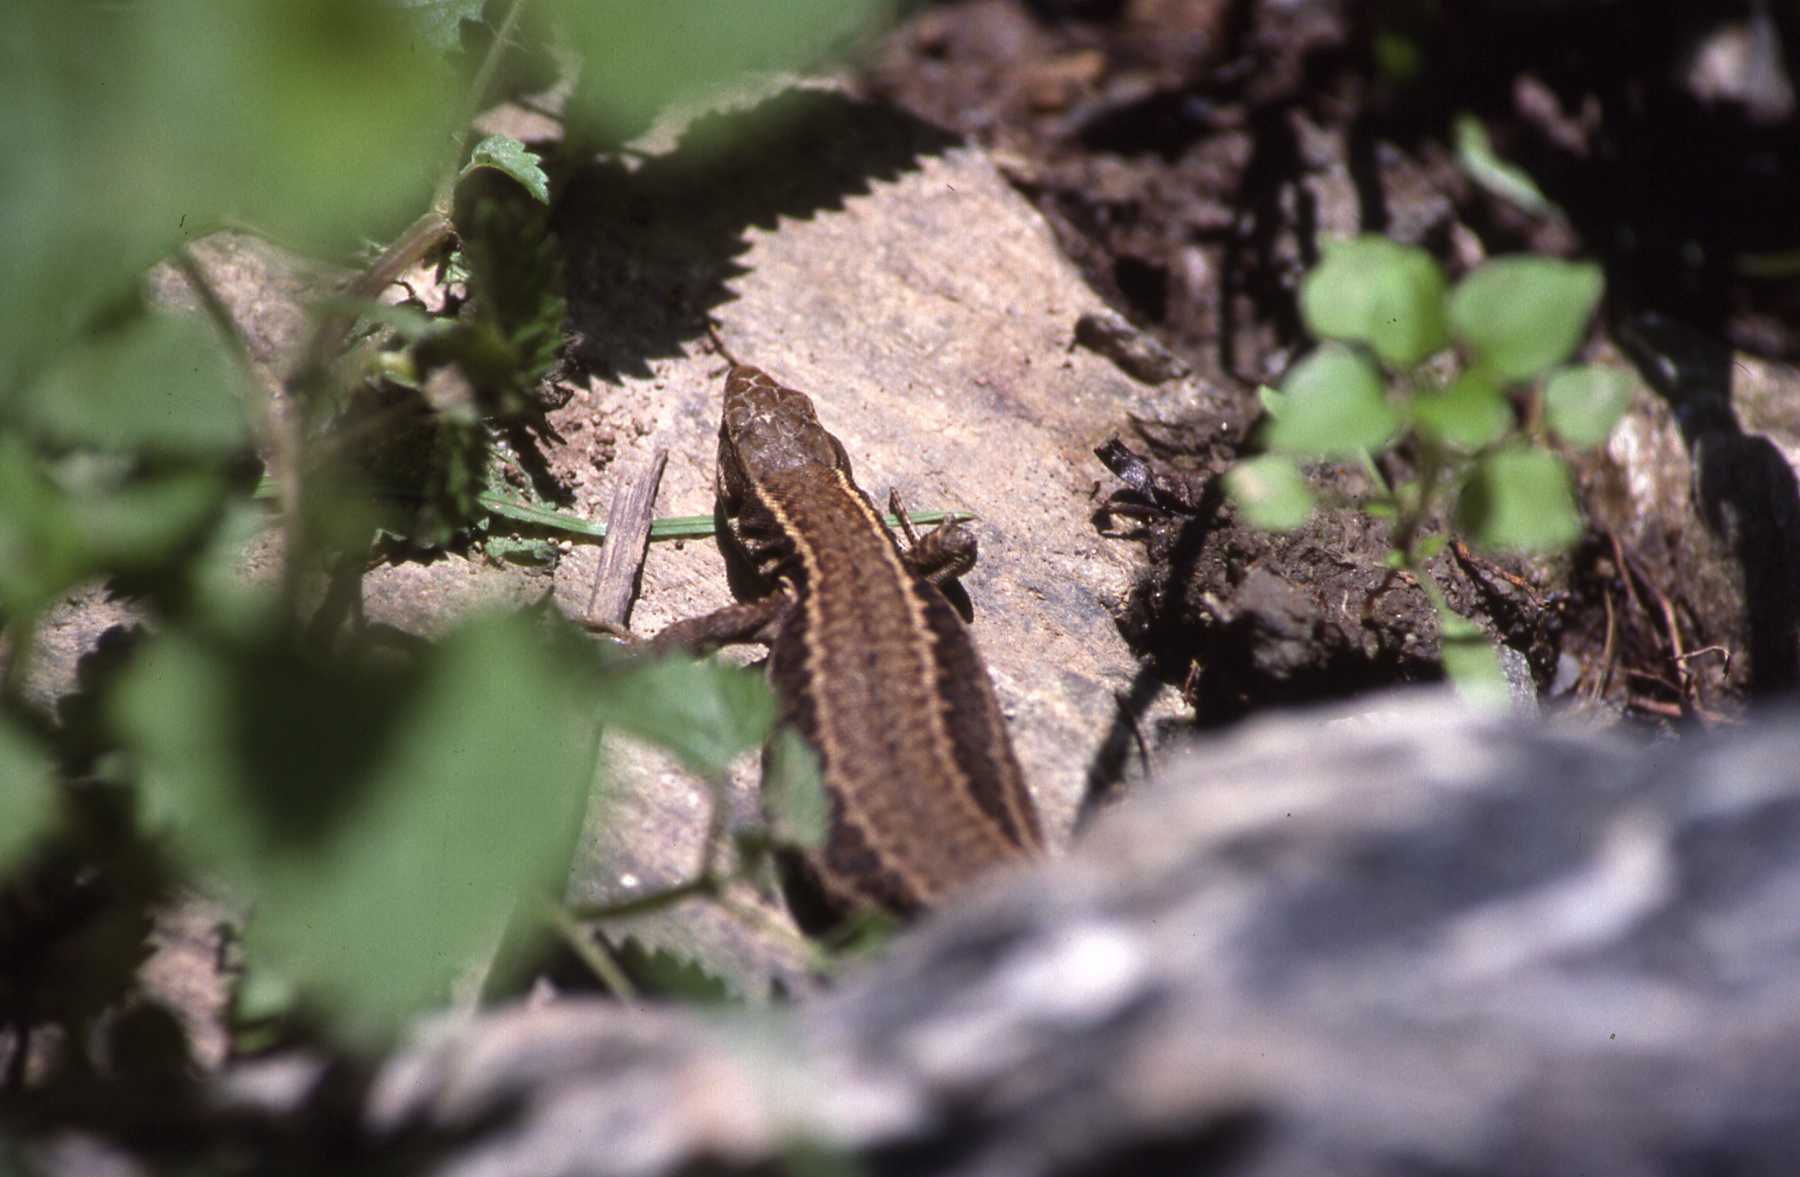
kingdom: Animalia
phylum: Chordata
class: Squamata
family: Lacertidae
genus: Podarcis
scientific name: Podarcis muralis
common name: Common wall lizard
